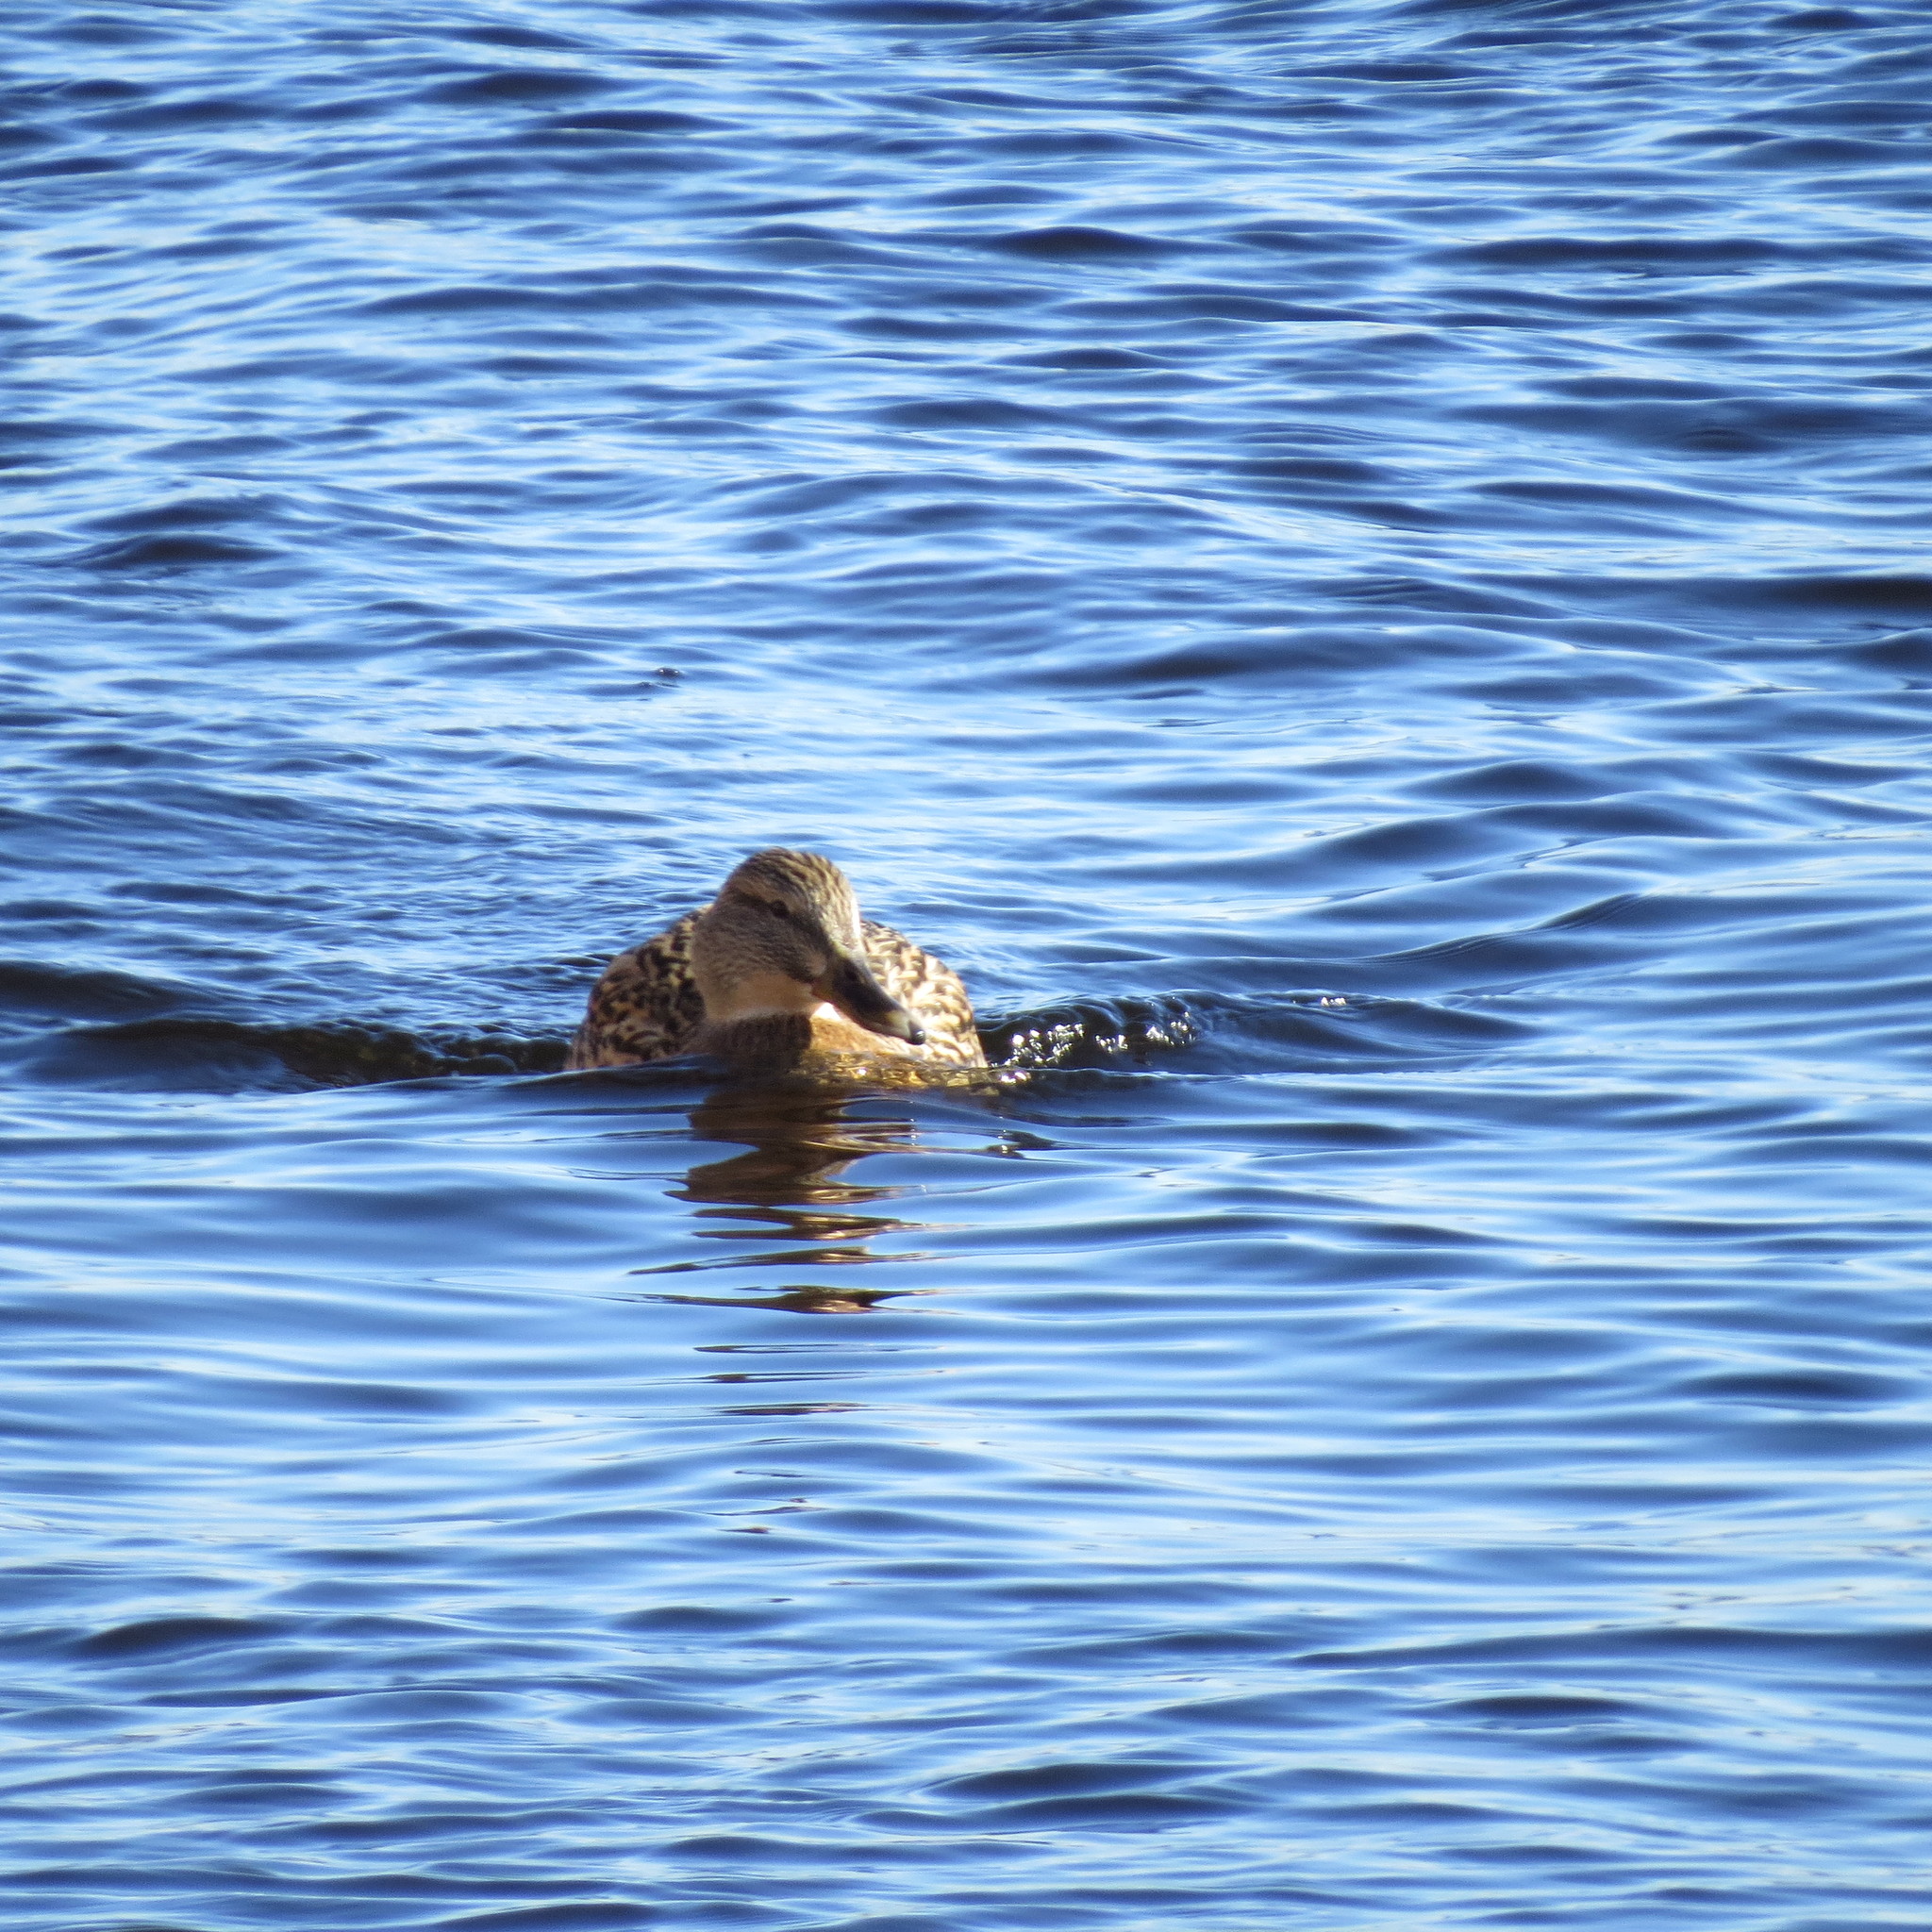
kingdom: Animalia
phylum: Chordata
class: Aves
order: Anseriformes
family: Anatidae
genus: Anas
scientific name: Anas platyrhynchos
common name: Mallard
